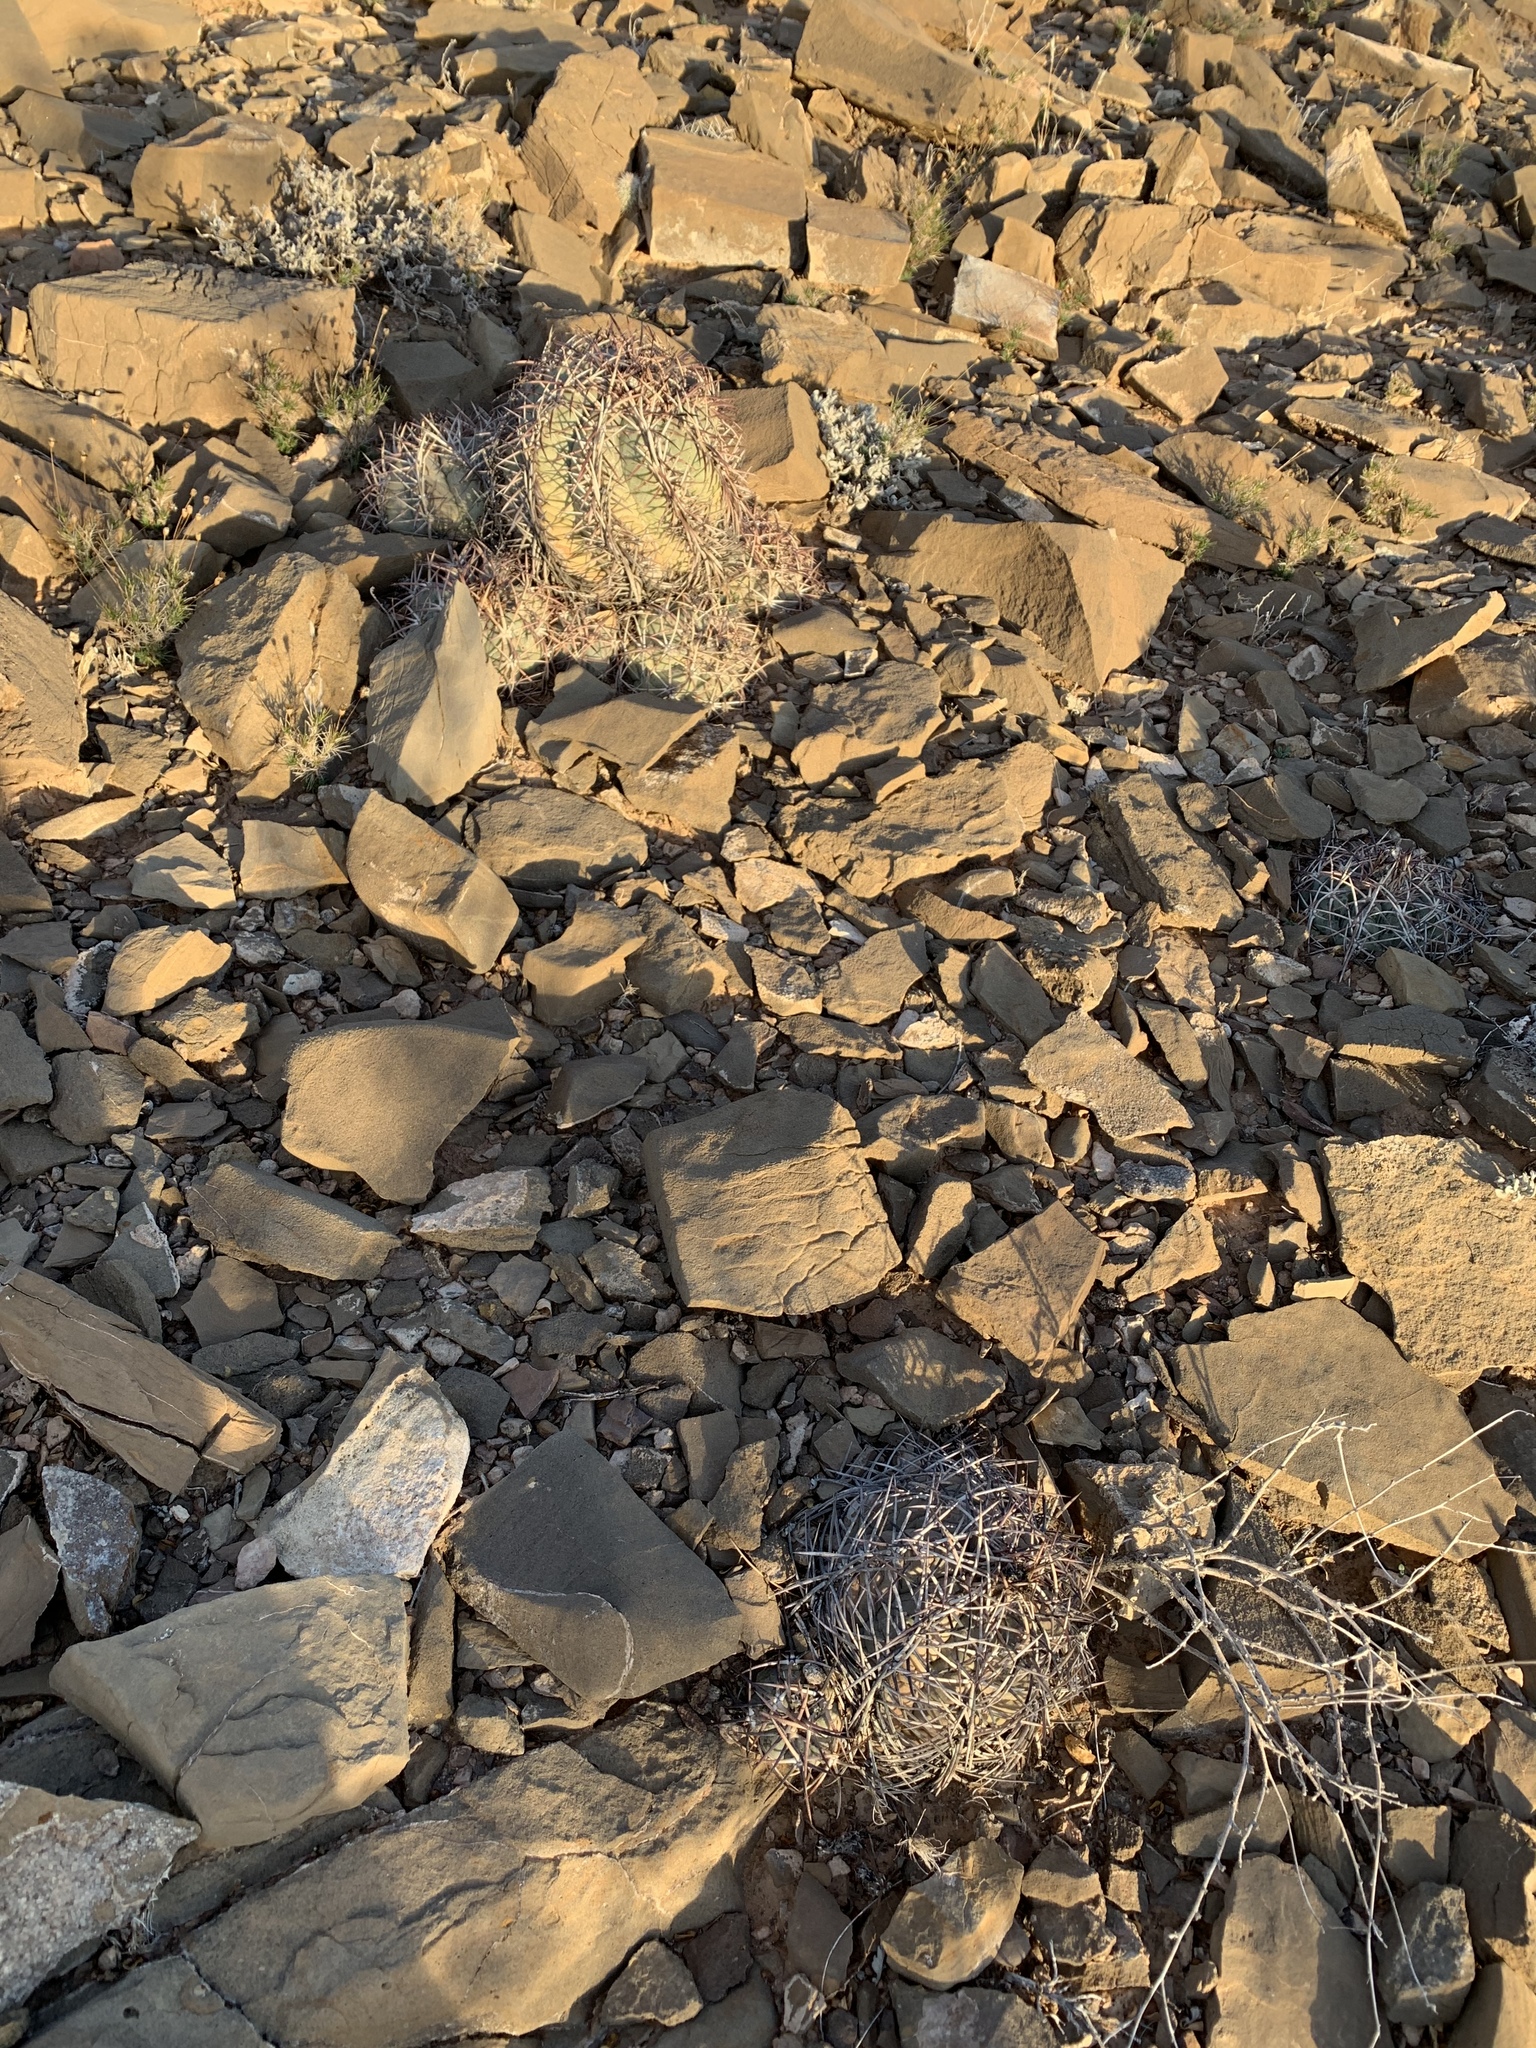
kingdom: Plantae
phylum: Tracheophyta
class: Magnoliopsida
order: Caryophyllales
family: Cactaceae
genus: Echinocactus
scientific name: Echinocactus horizonthalonius
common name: Devilshead
